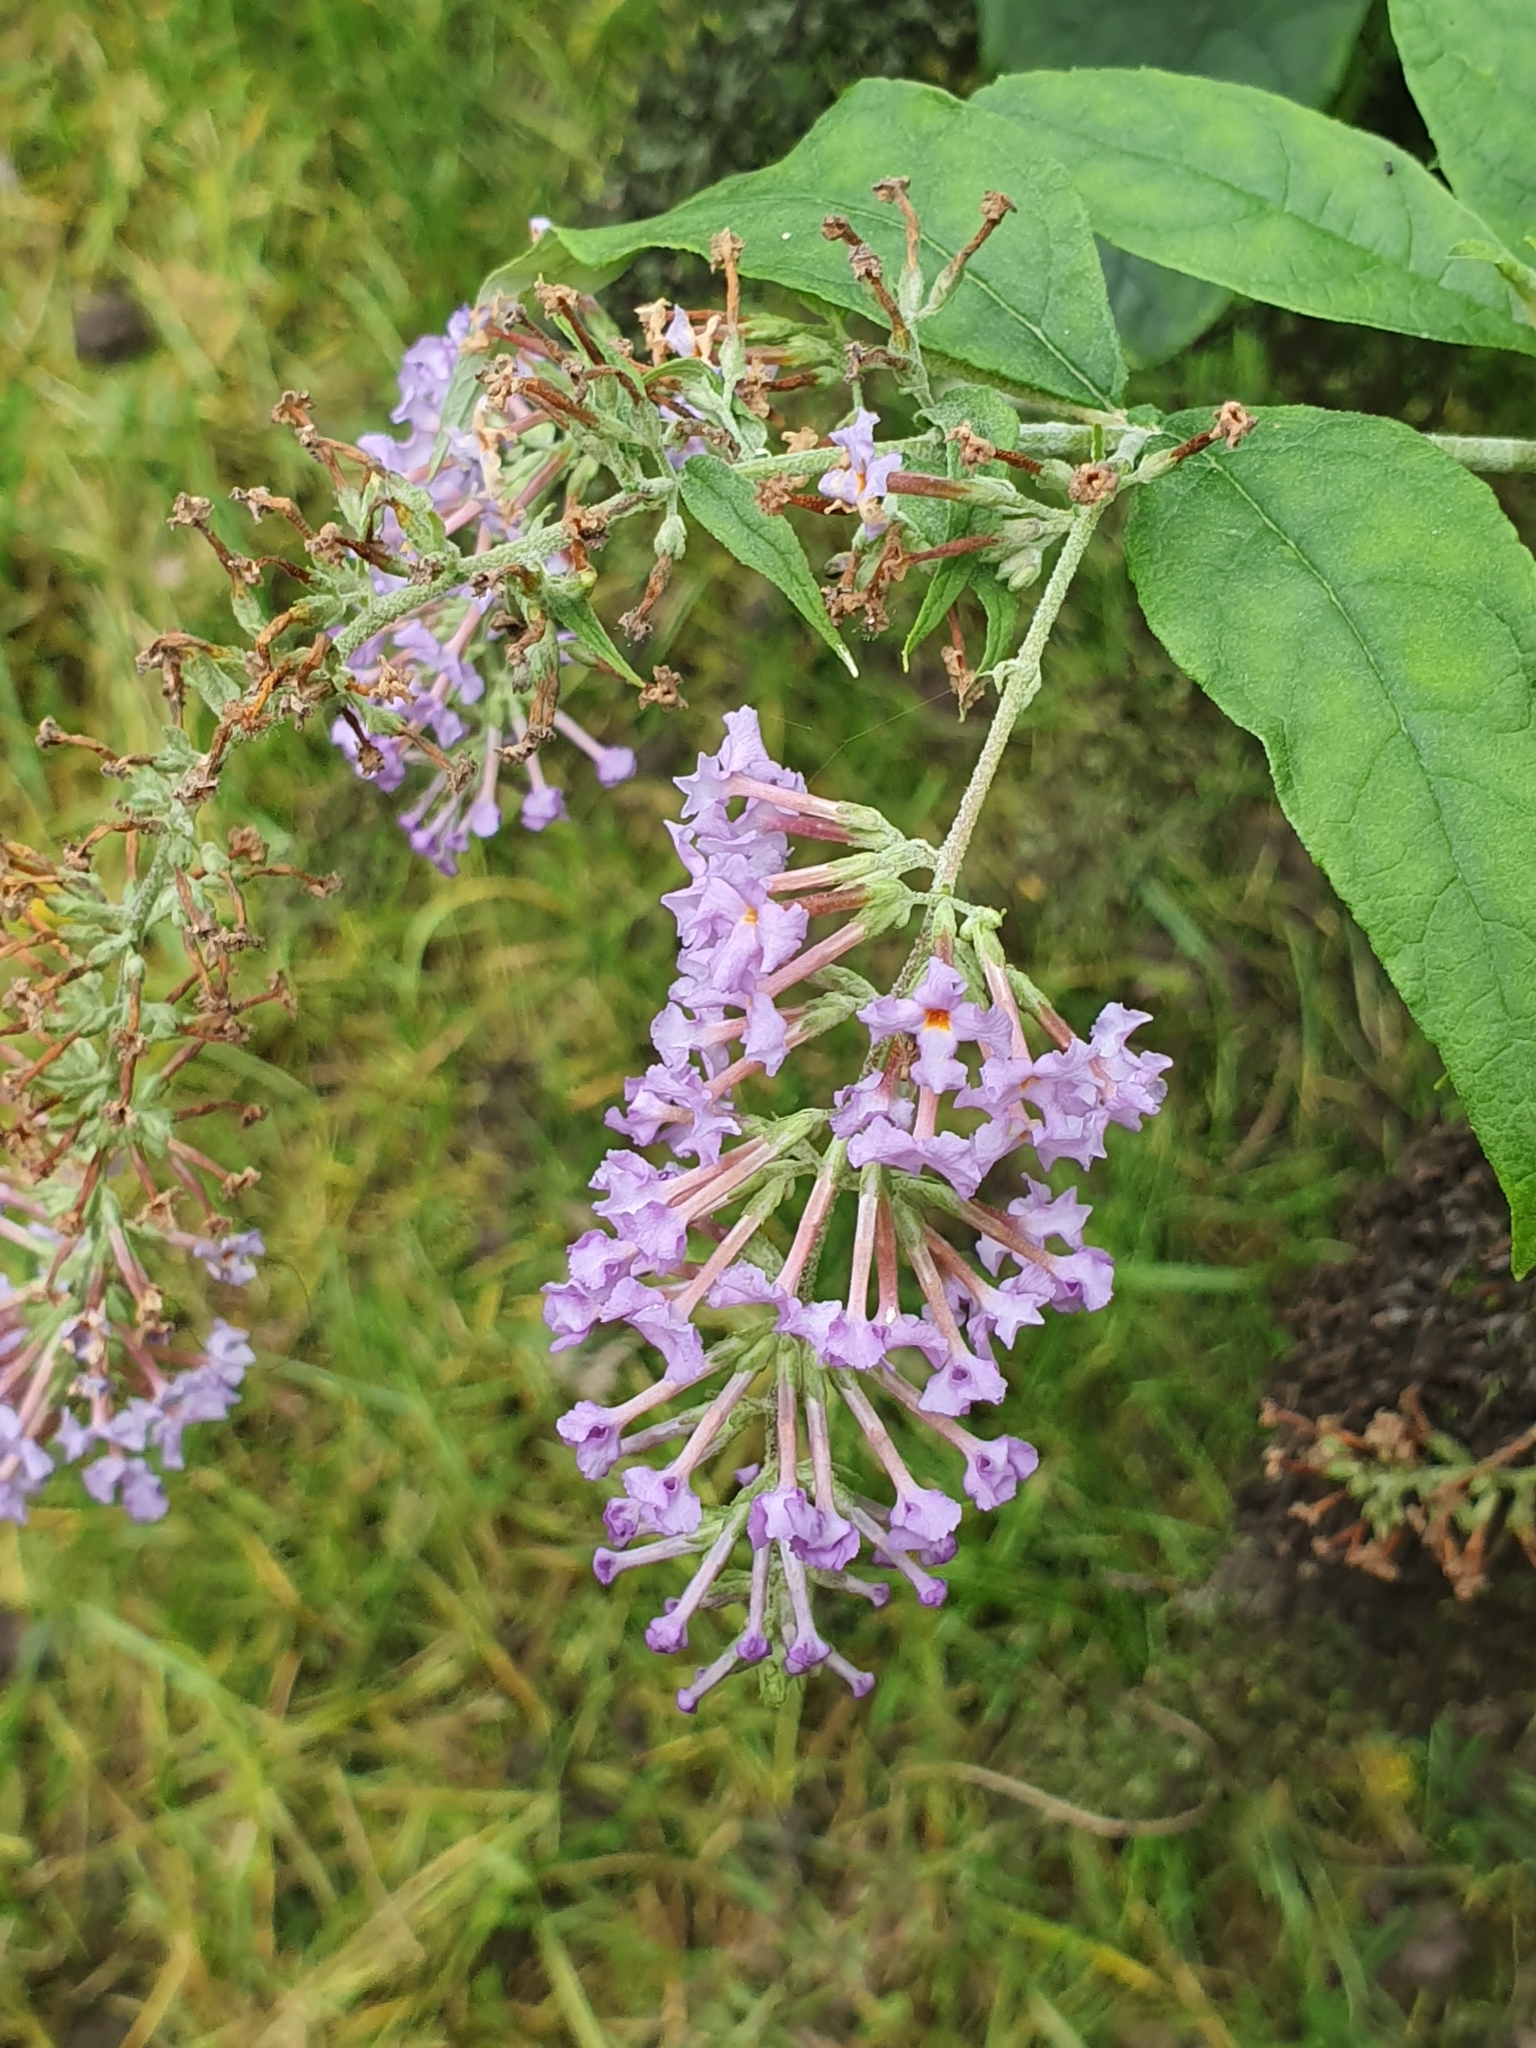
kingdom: Plantae
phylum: Tracheophyta
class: Magnoliopsida
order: Lamiales
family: Scrophulariaceae
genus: Buddleja
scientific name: Buddleja davidii
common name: Butterfly-bush
